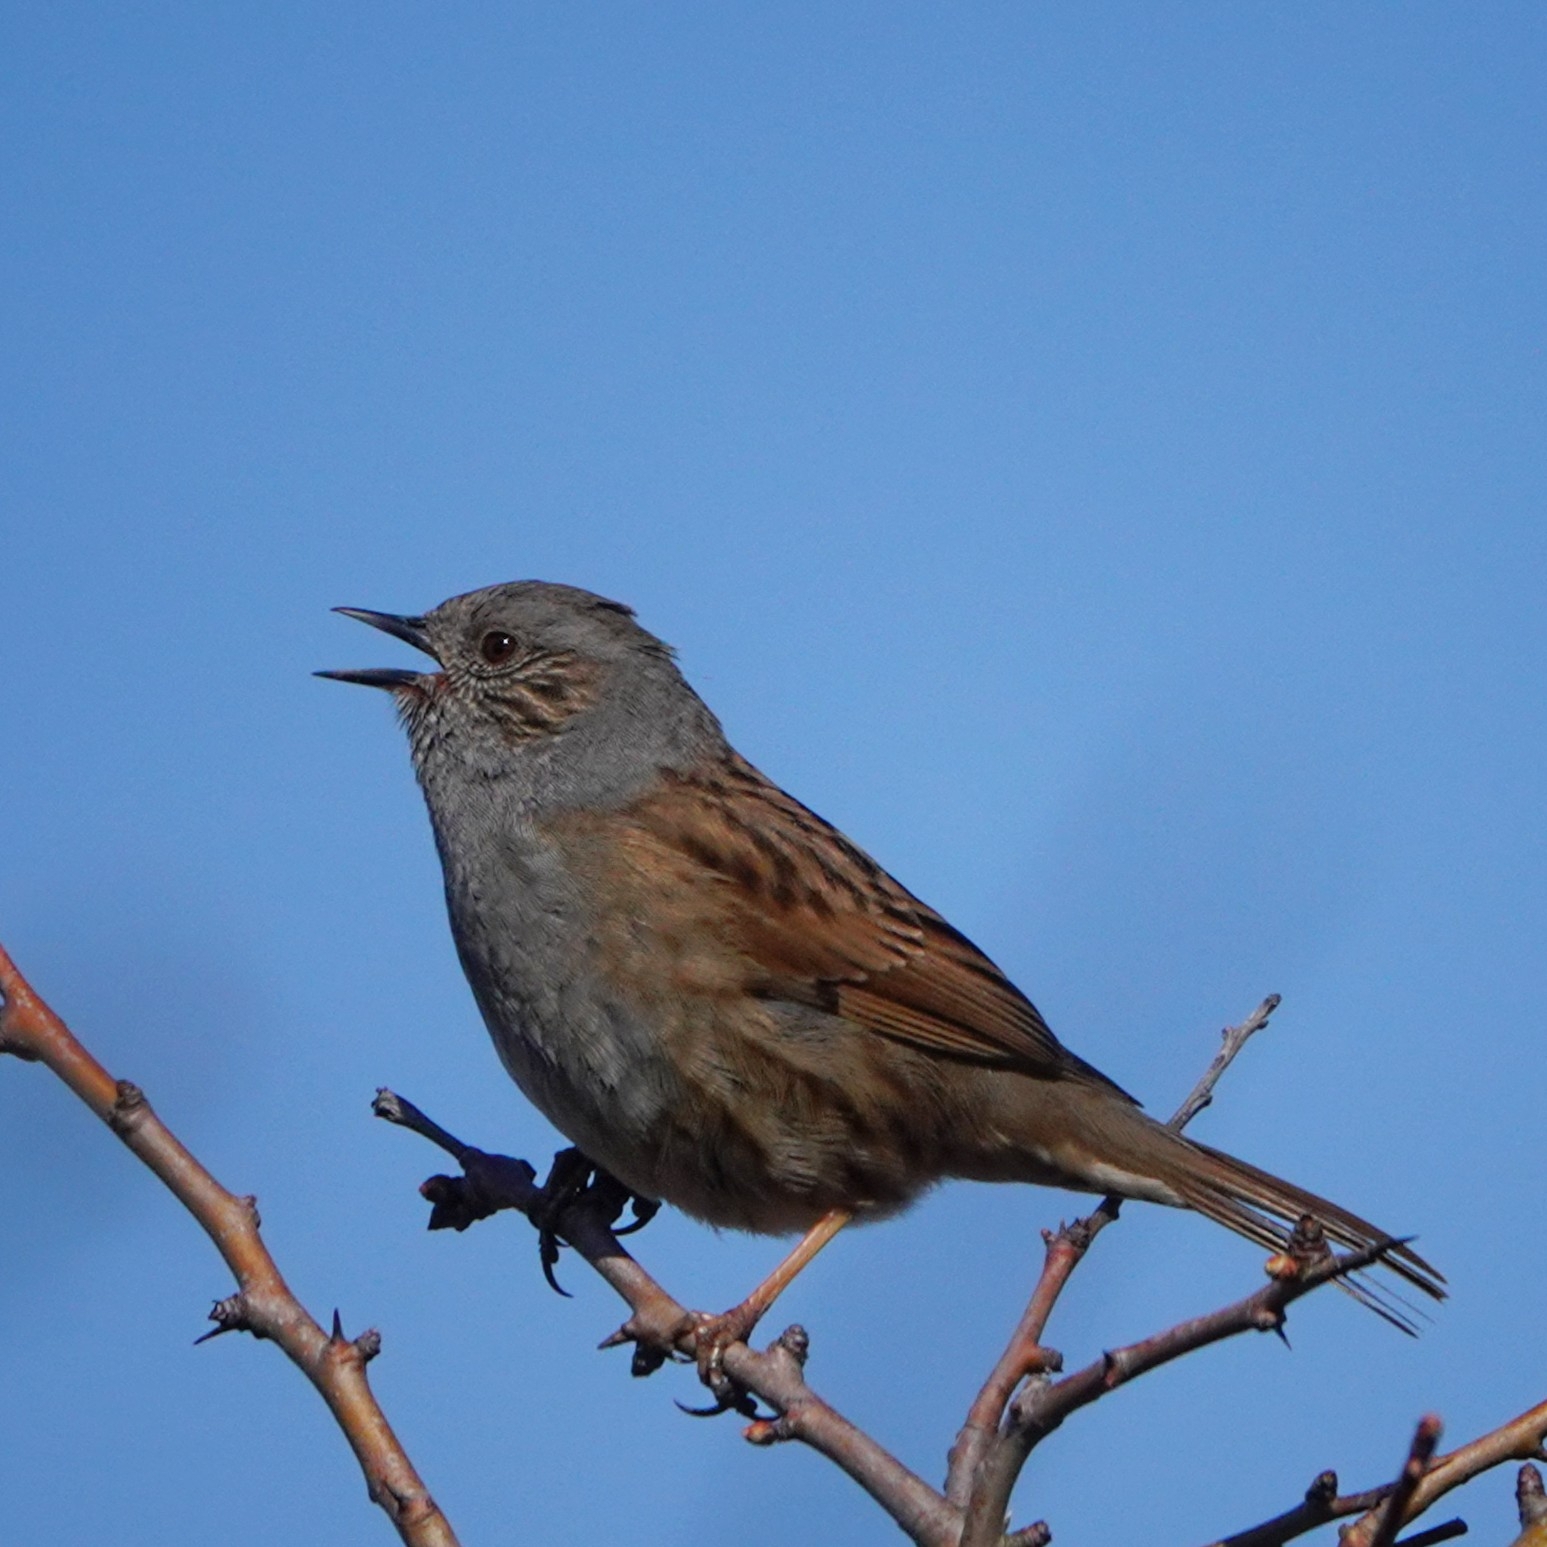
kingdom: Animalia
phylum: Chordata
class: Aves
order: Passeriformes
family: Prunellidae
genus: Prunella
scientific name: Prunella modularis
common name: Dunnock
